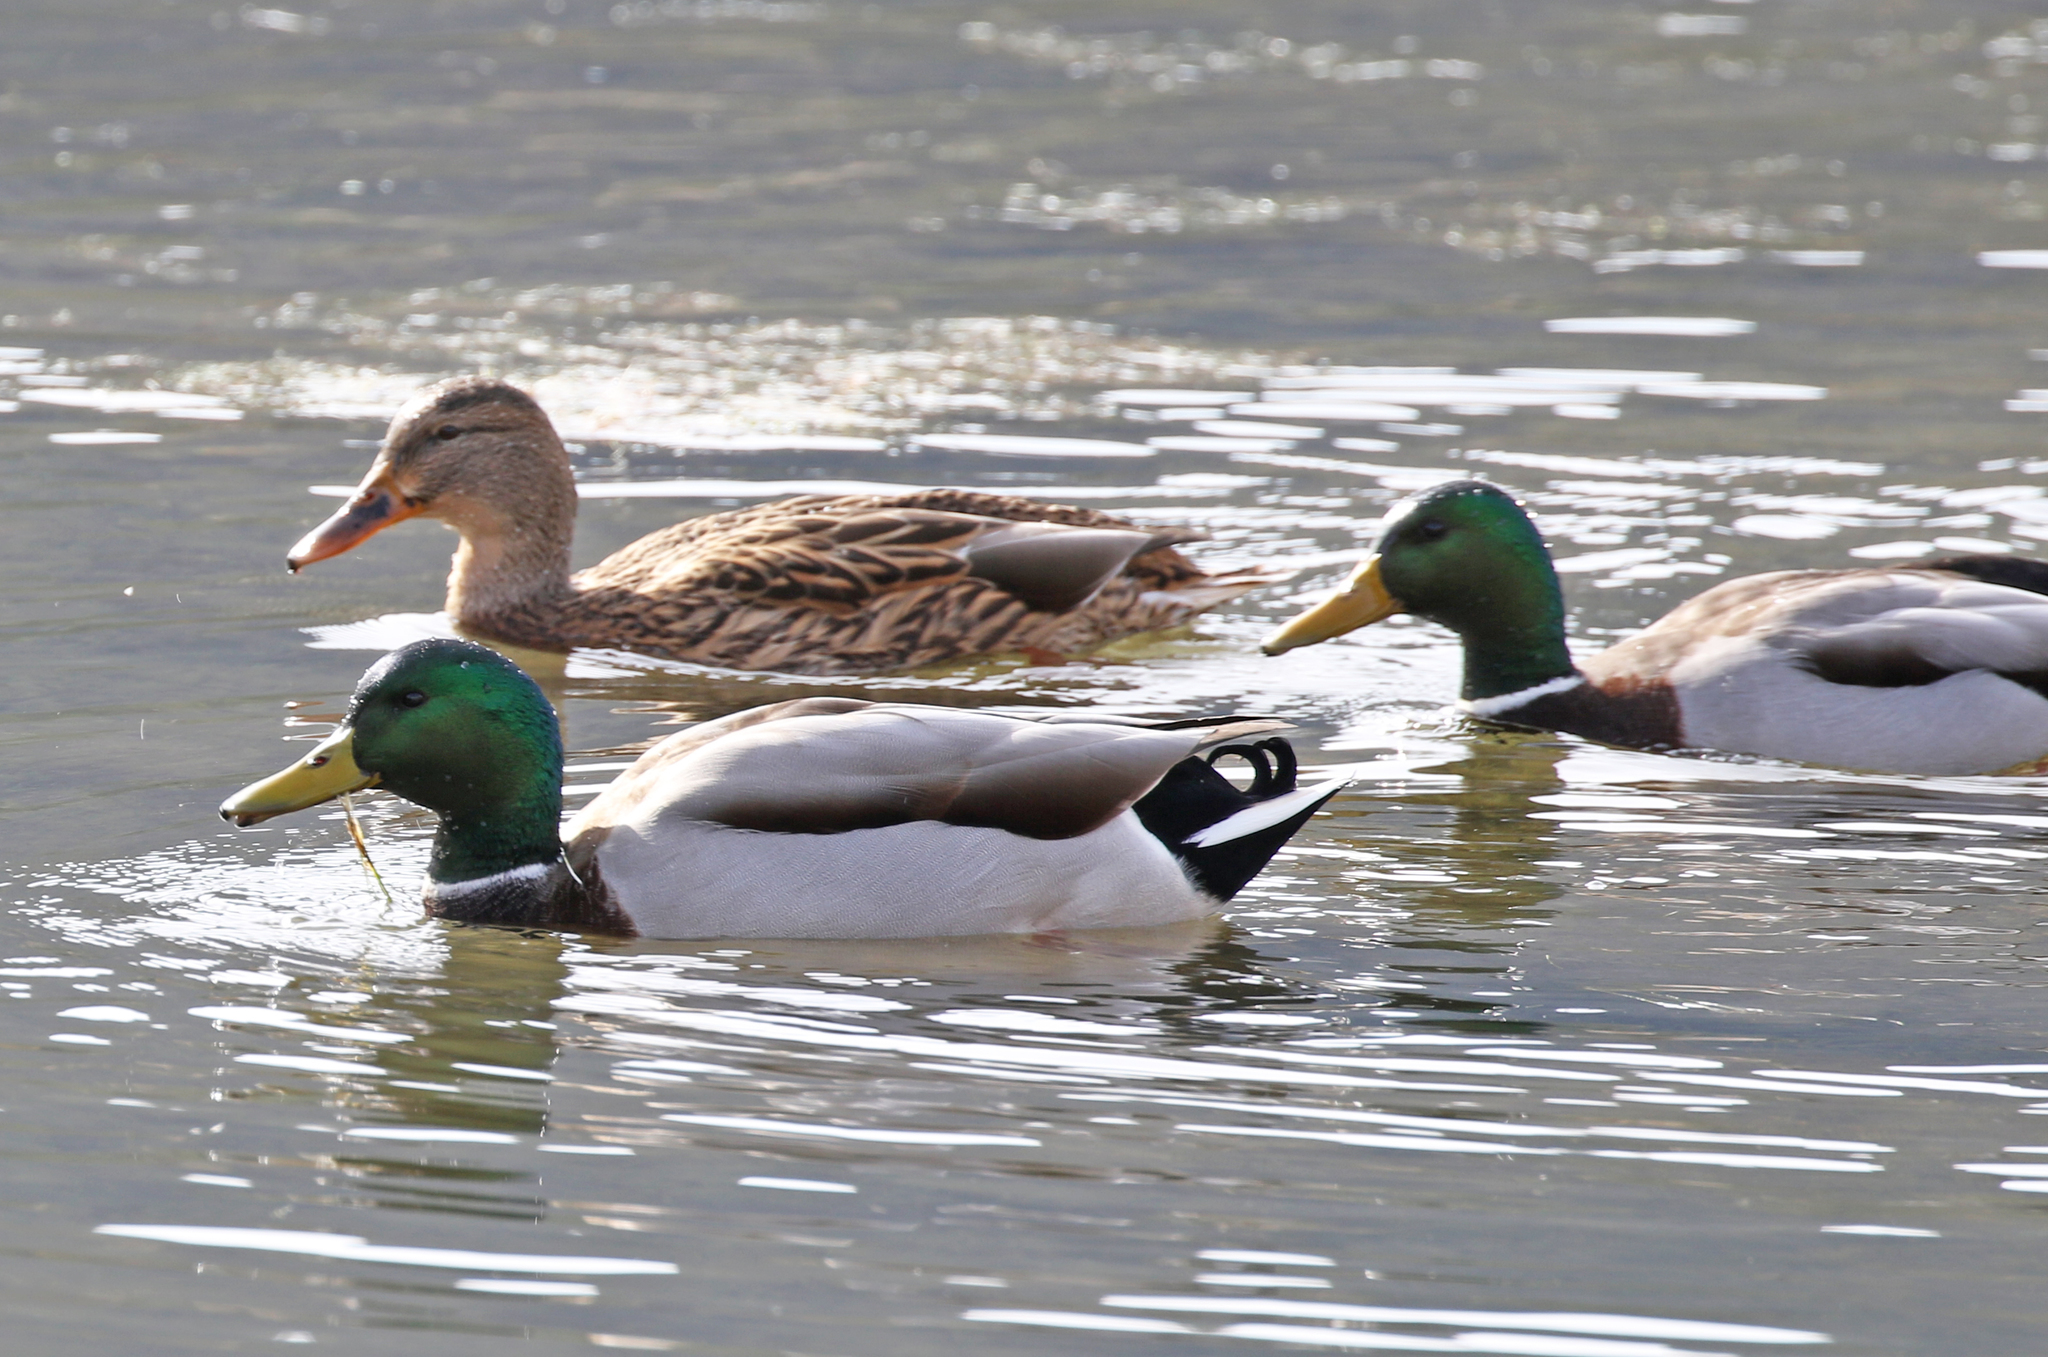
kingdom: Animalia
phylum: Chordata
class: Aves
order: Anseriformes
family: Anatidae
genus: Anas
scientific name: Anas platyrhynchos
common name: Mallard
